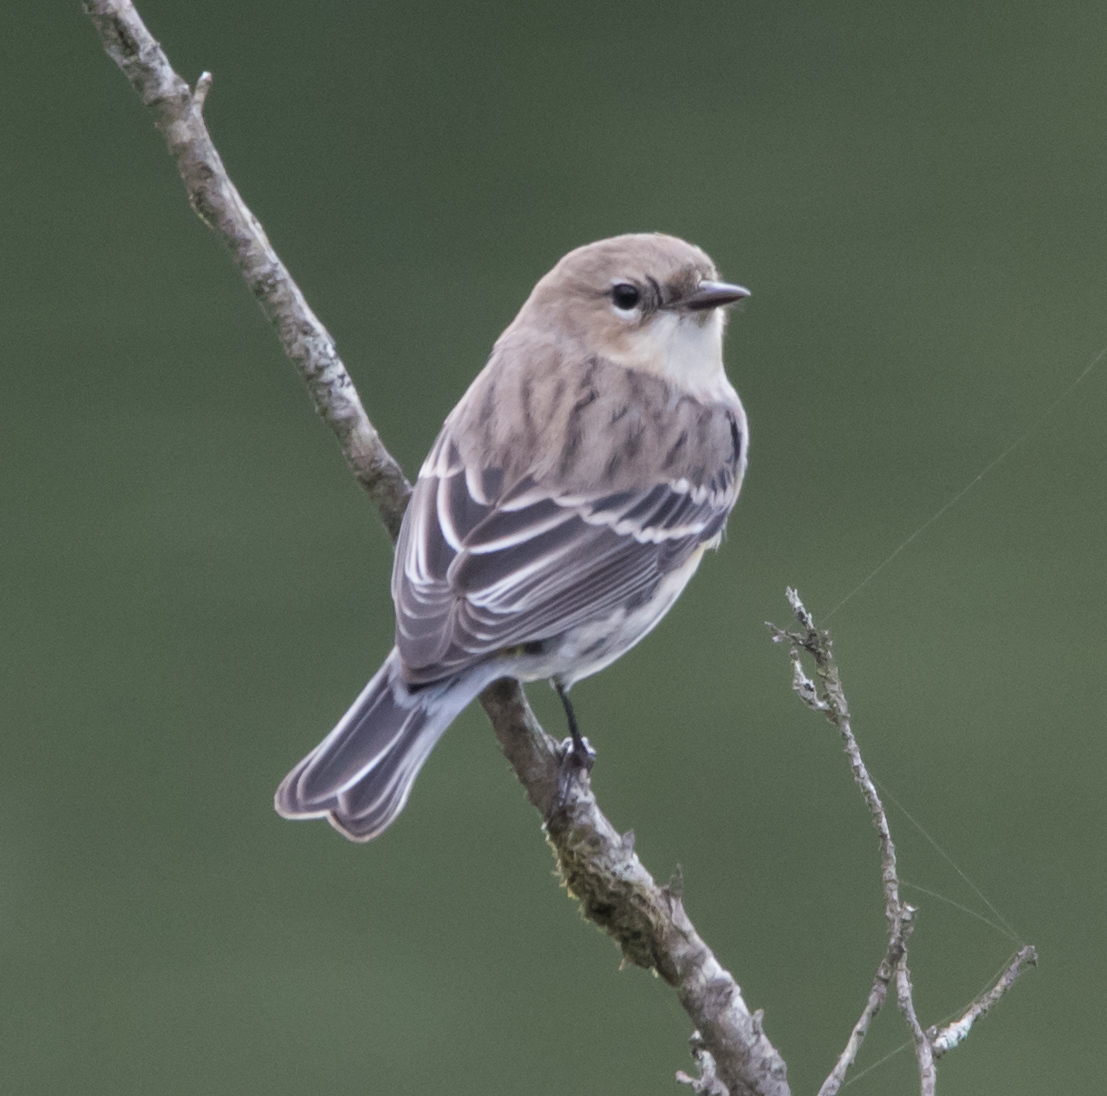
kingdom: Animalia
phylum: Chordata
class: Aves
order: Passeriformes
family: Parulidae
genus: Setophaga
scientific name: Setophaga coronata
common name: Myrtle warbler
